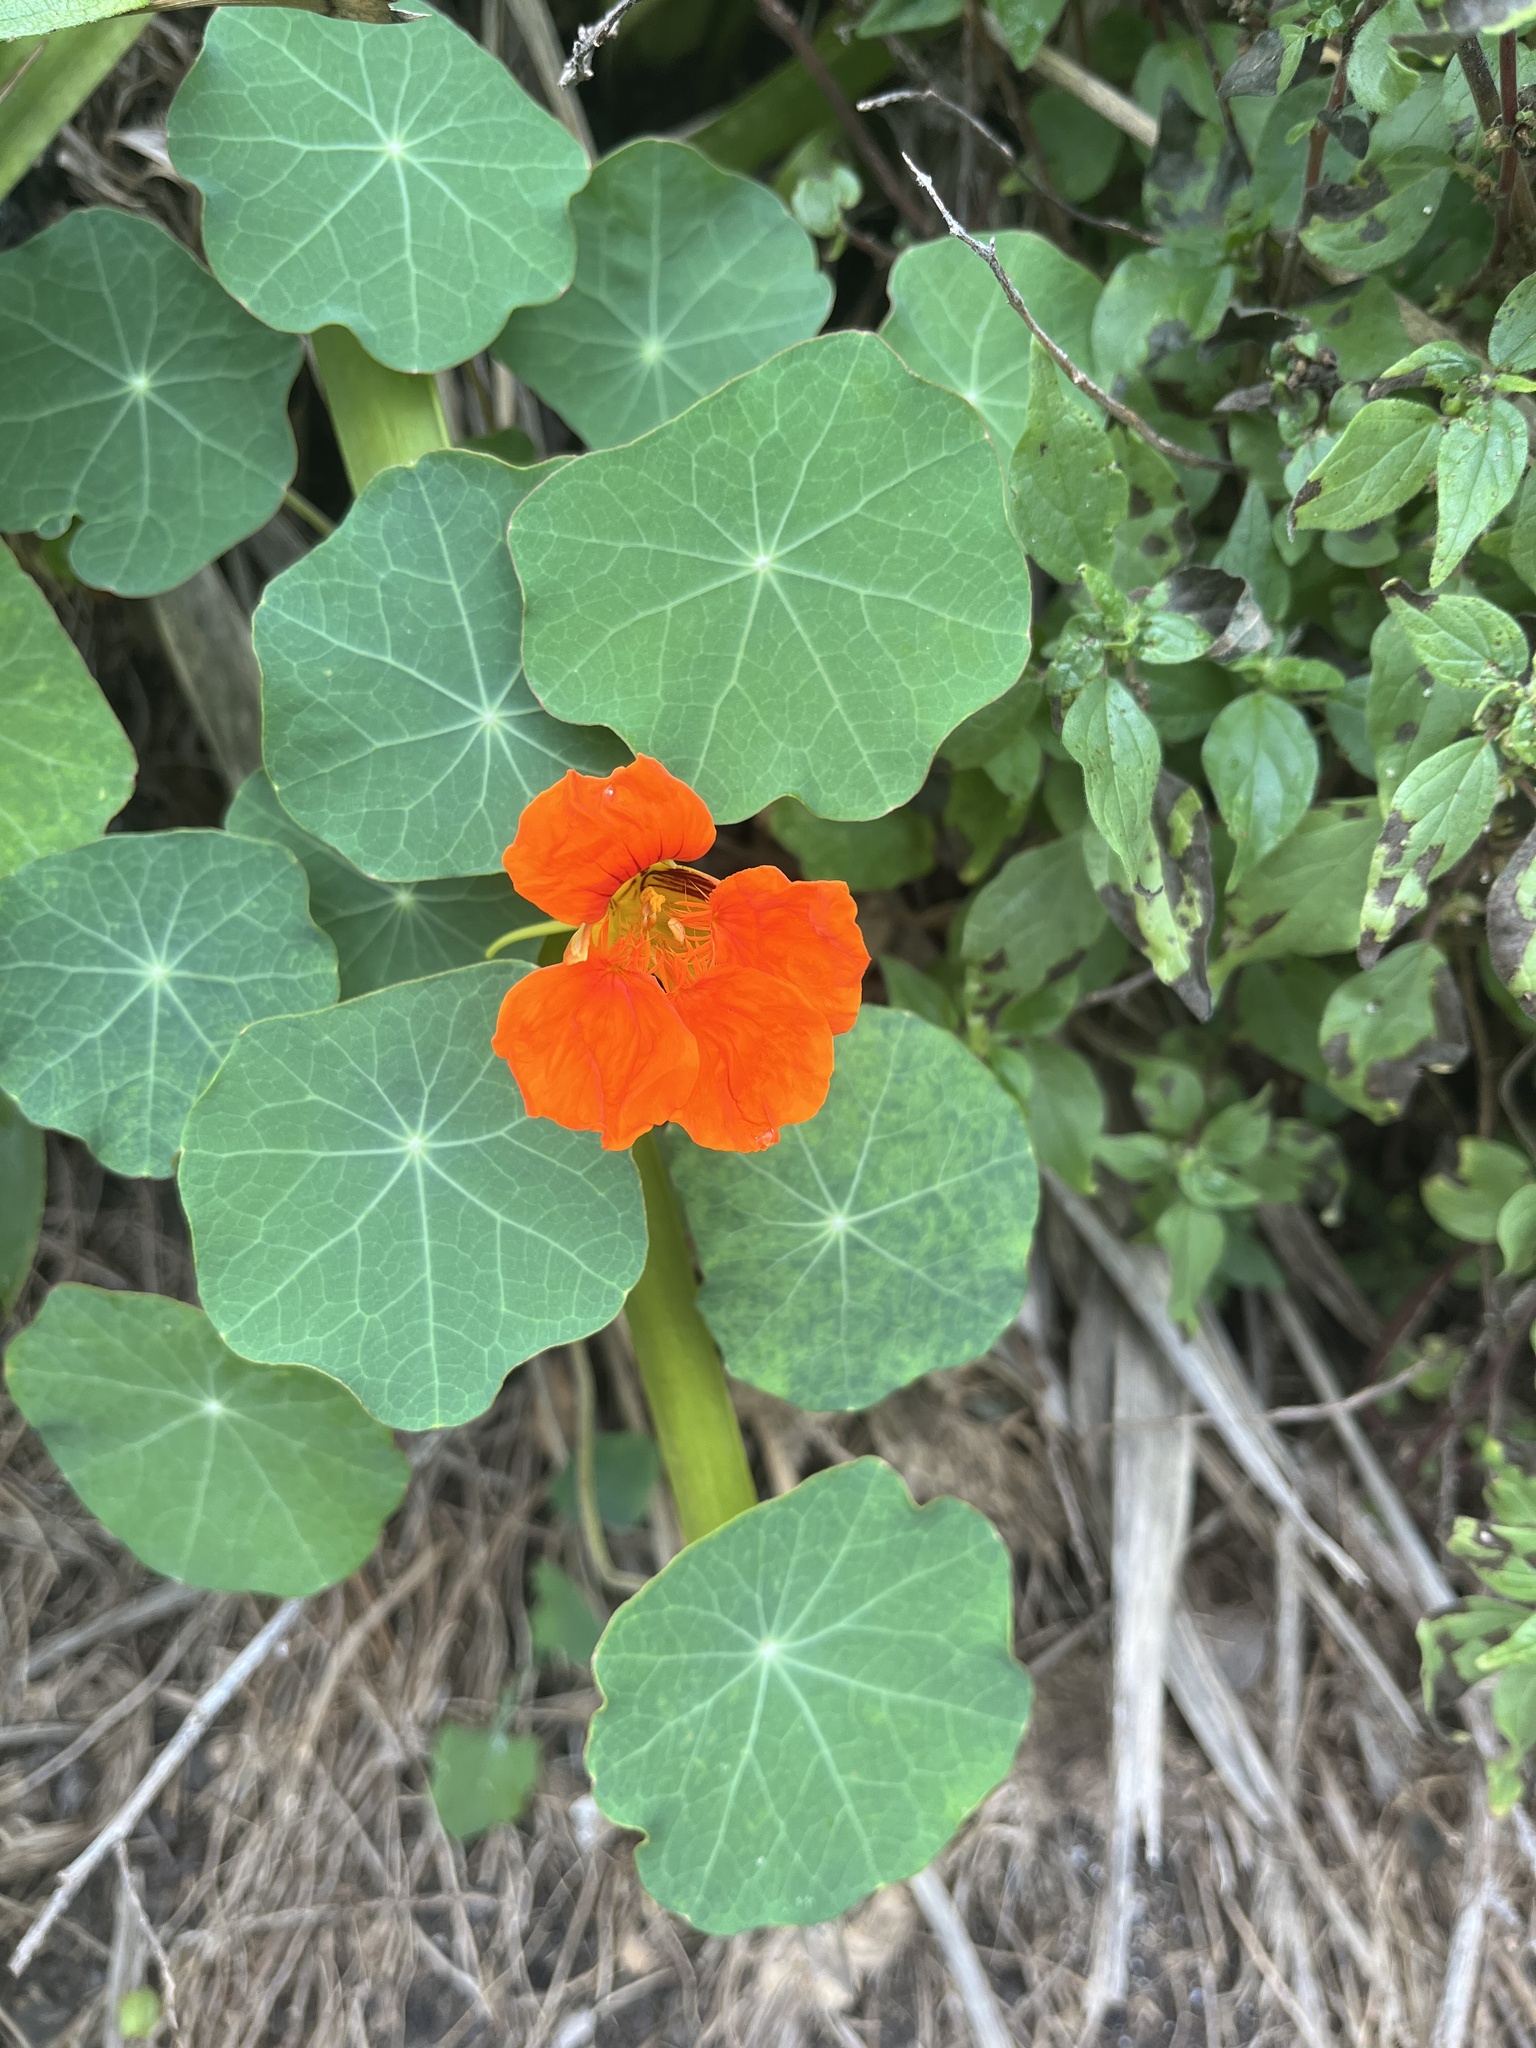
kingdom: Plantae
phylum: Tracheophyta
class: Magnoliopsida
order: Brassicales
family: Tropaeolaceae
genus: Tropaeolum
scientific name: Tropaeolum majus
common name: Nasturtium
